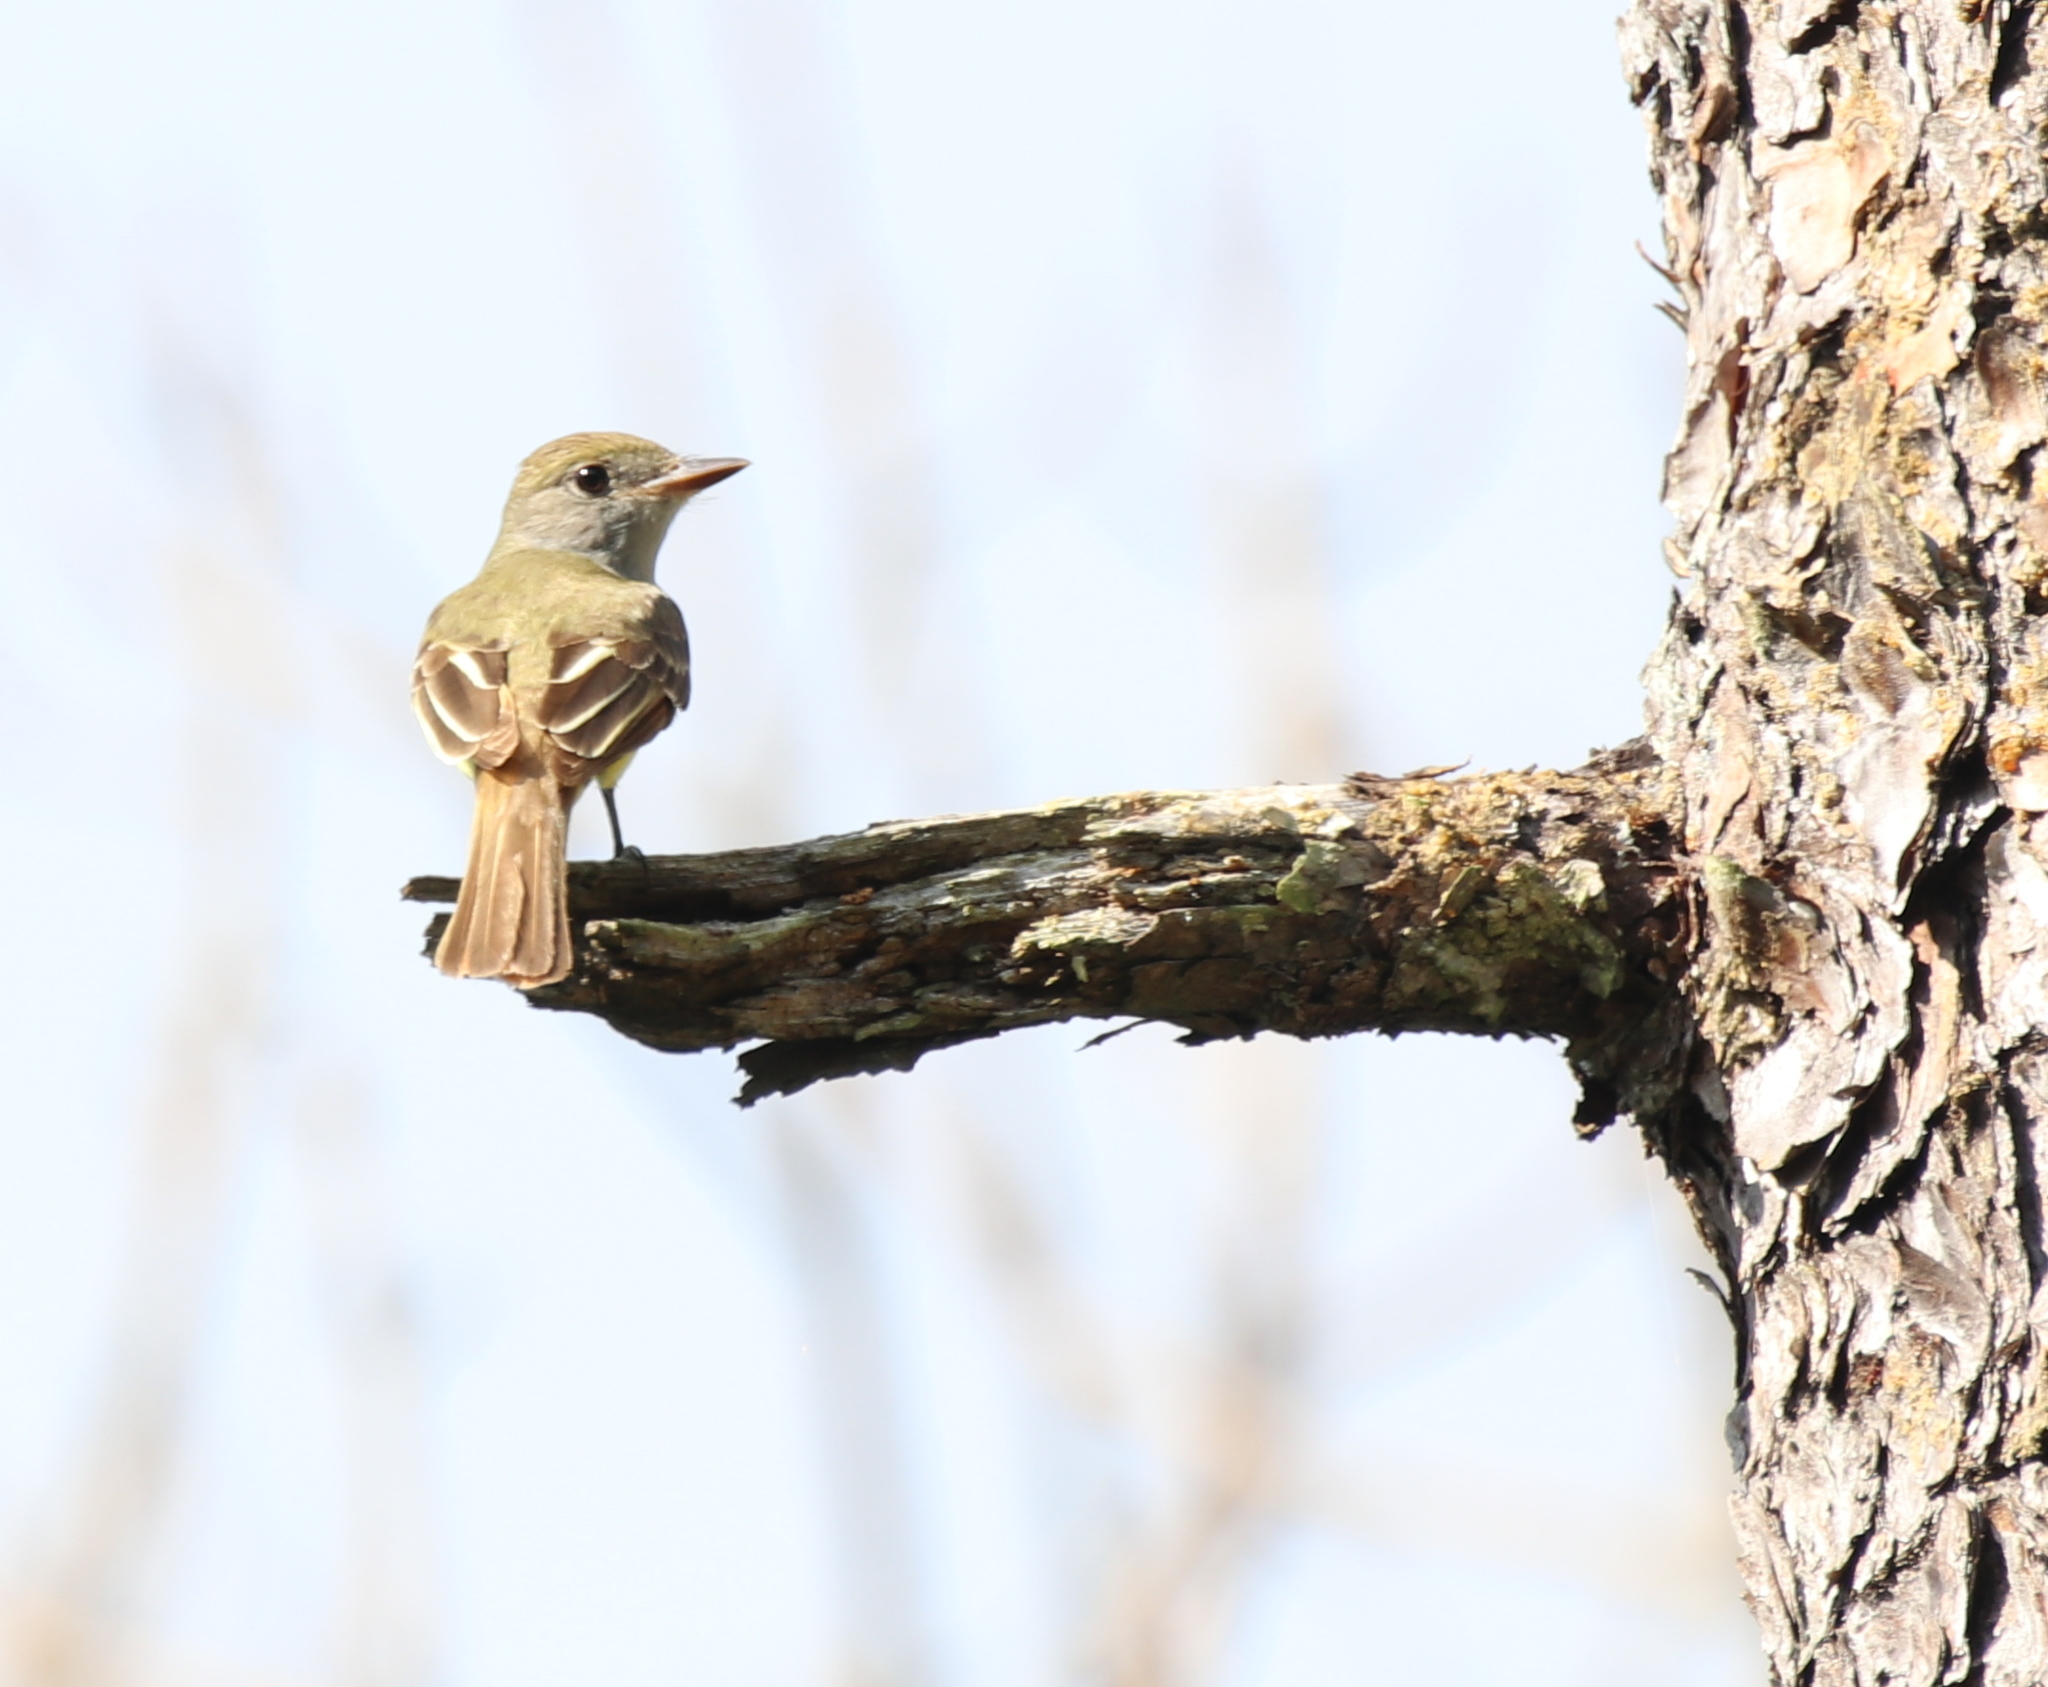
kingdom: Animalia
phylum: Chordata
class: Aves
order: Passeriformes
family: Tyrannidae
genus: Myiarchus
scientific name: Myiarchus crinitus
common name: Great crested flycatcher
